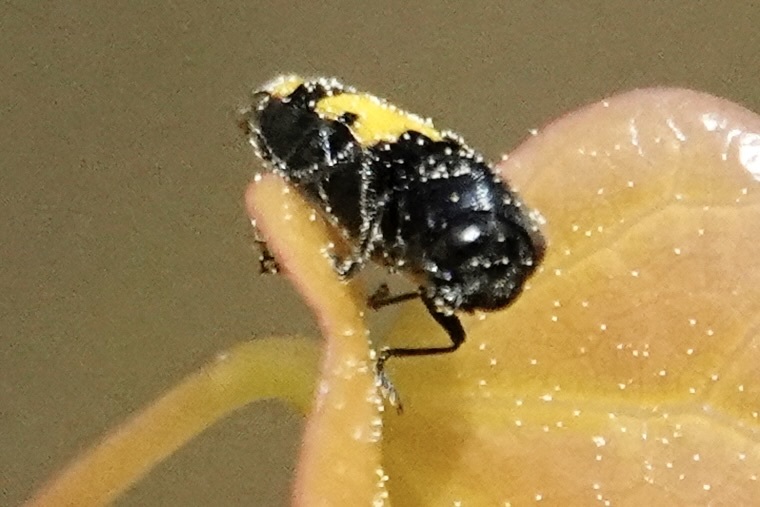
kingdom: Animalia
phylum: Arthropoda
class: Insecta
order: Coleoptera
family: Buprestidae
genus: Ptosima
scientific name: Ptosima gibbicollis
